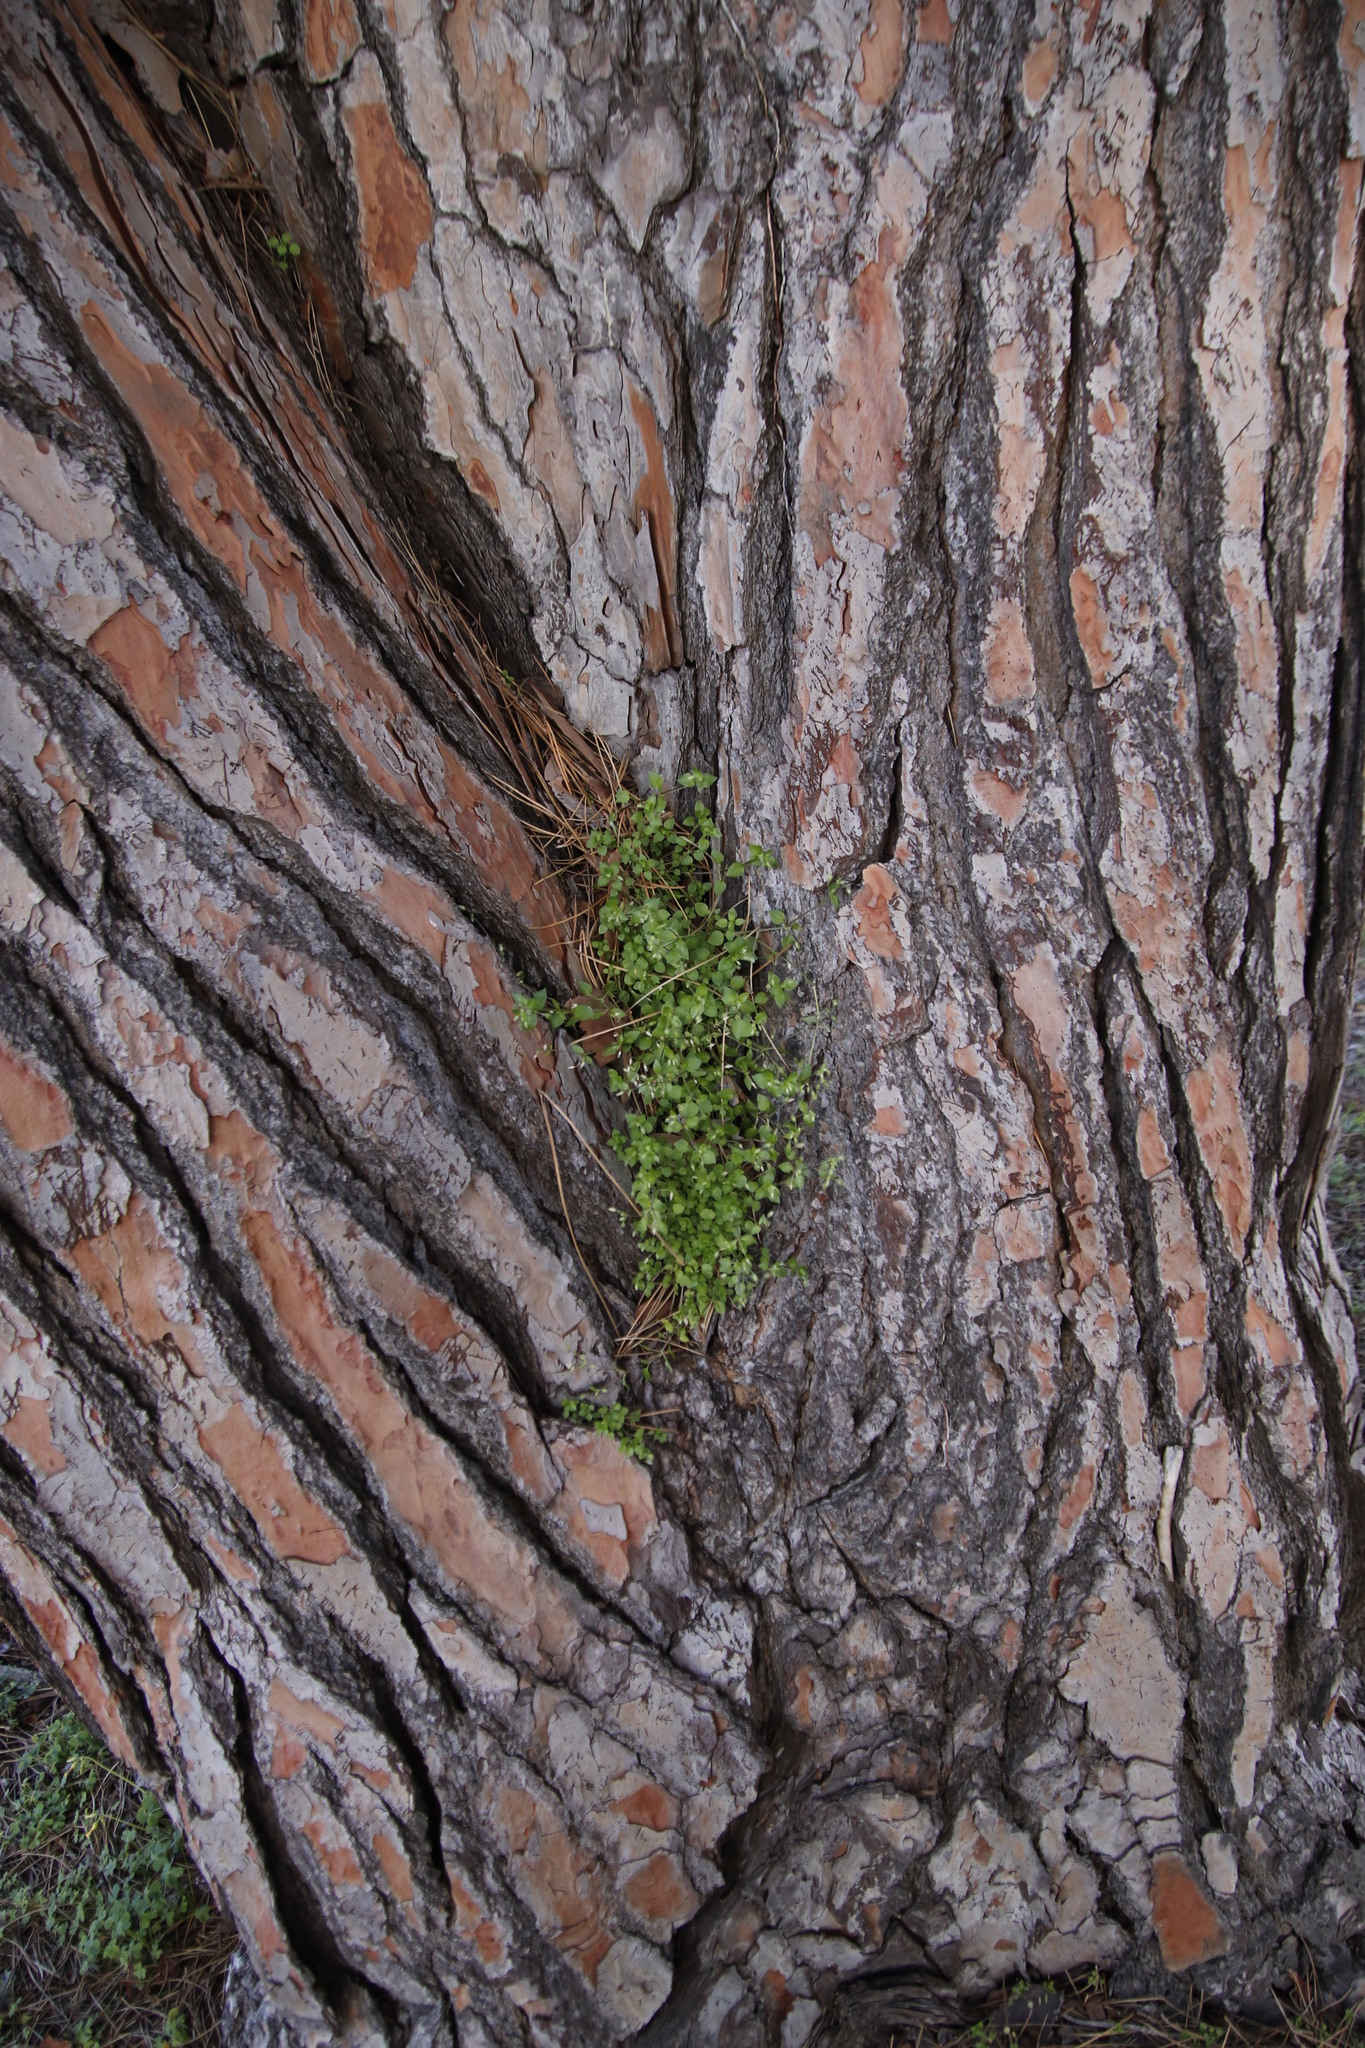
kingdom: Plantae
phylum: Tracheophyta
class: Magnoliopsida
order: Caryophyllales
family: Caryophyllaceae
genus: Stellaria
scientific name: Stellaria media
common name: Common chickweed
